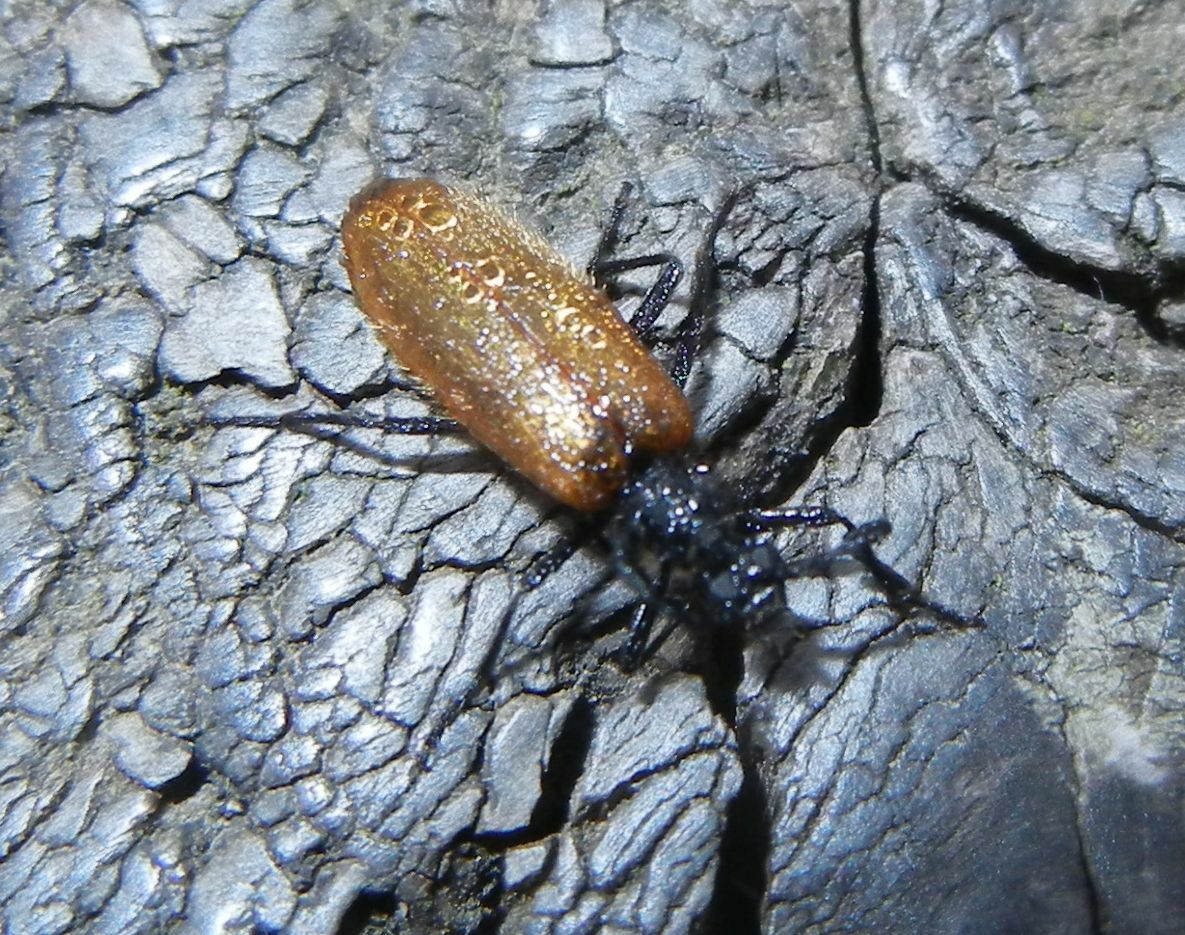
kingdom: Animalia
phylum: Arthropoda
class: Insecta
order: Coleoptera
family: Tenebrionidae
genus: Lagria
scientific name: Lagria hirta
